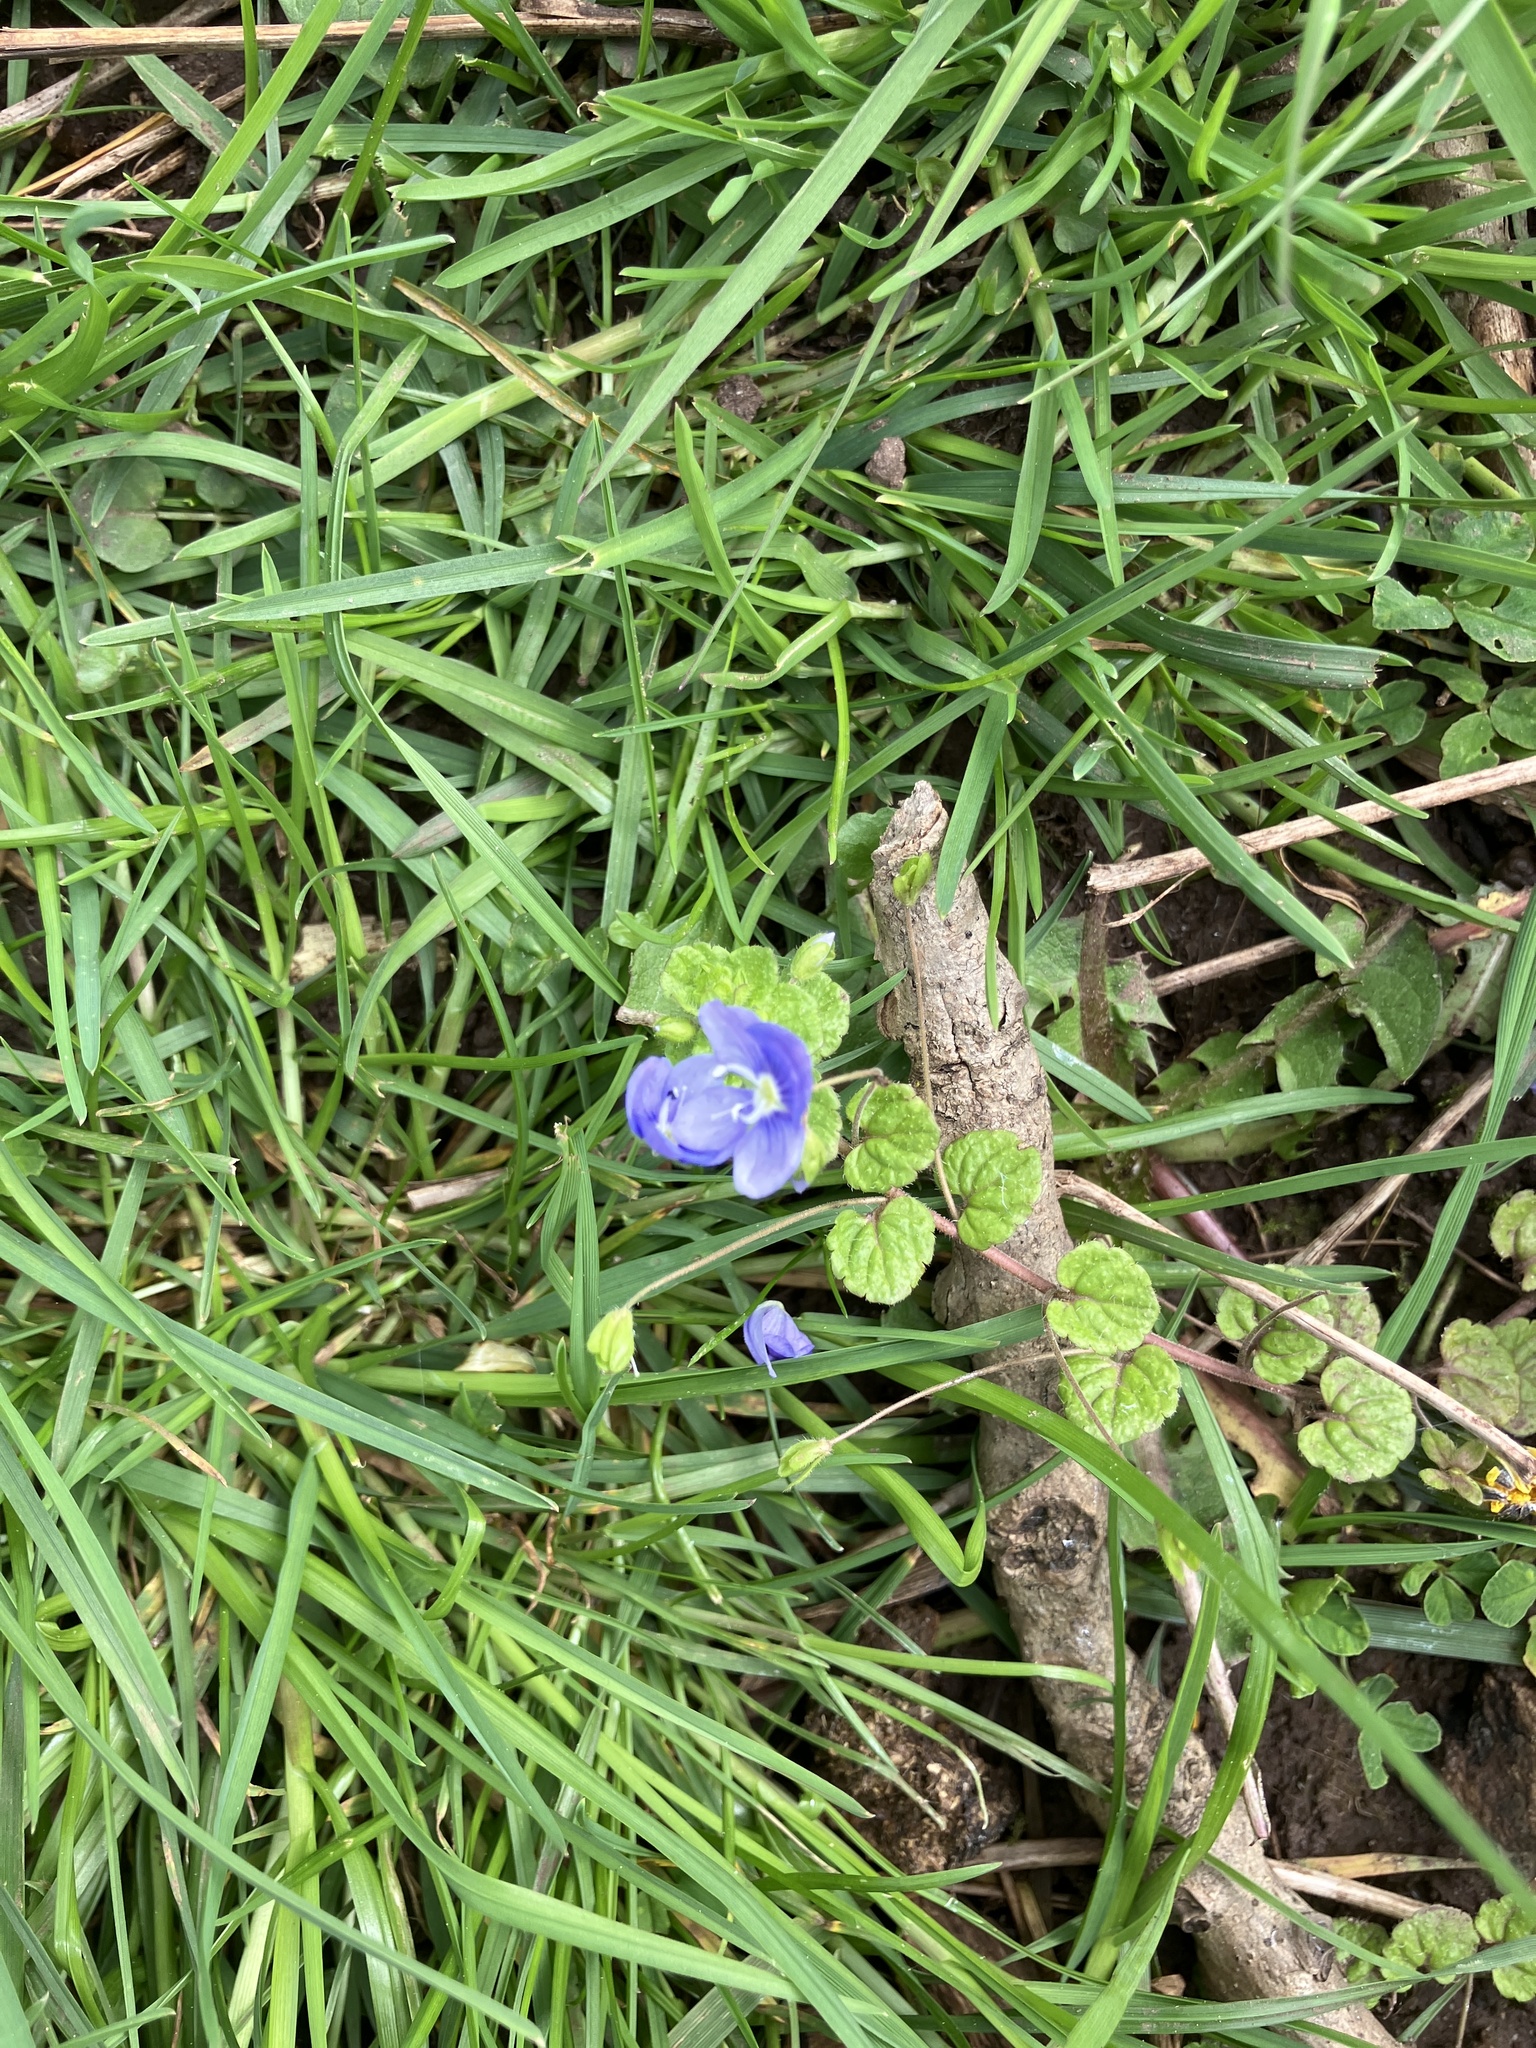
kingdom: Plantae
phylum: Tracheophyta
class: Magnoliopsida
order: Lamiales
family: Plantaginaceae
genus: Veronica
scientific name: Veronica filiformis
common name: Slender speedwell
